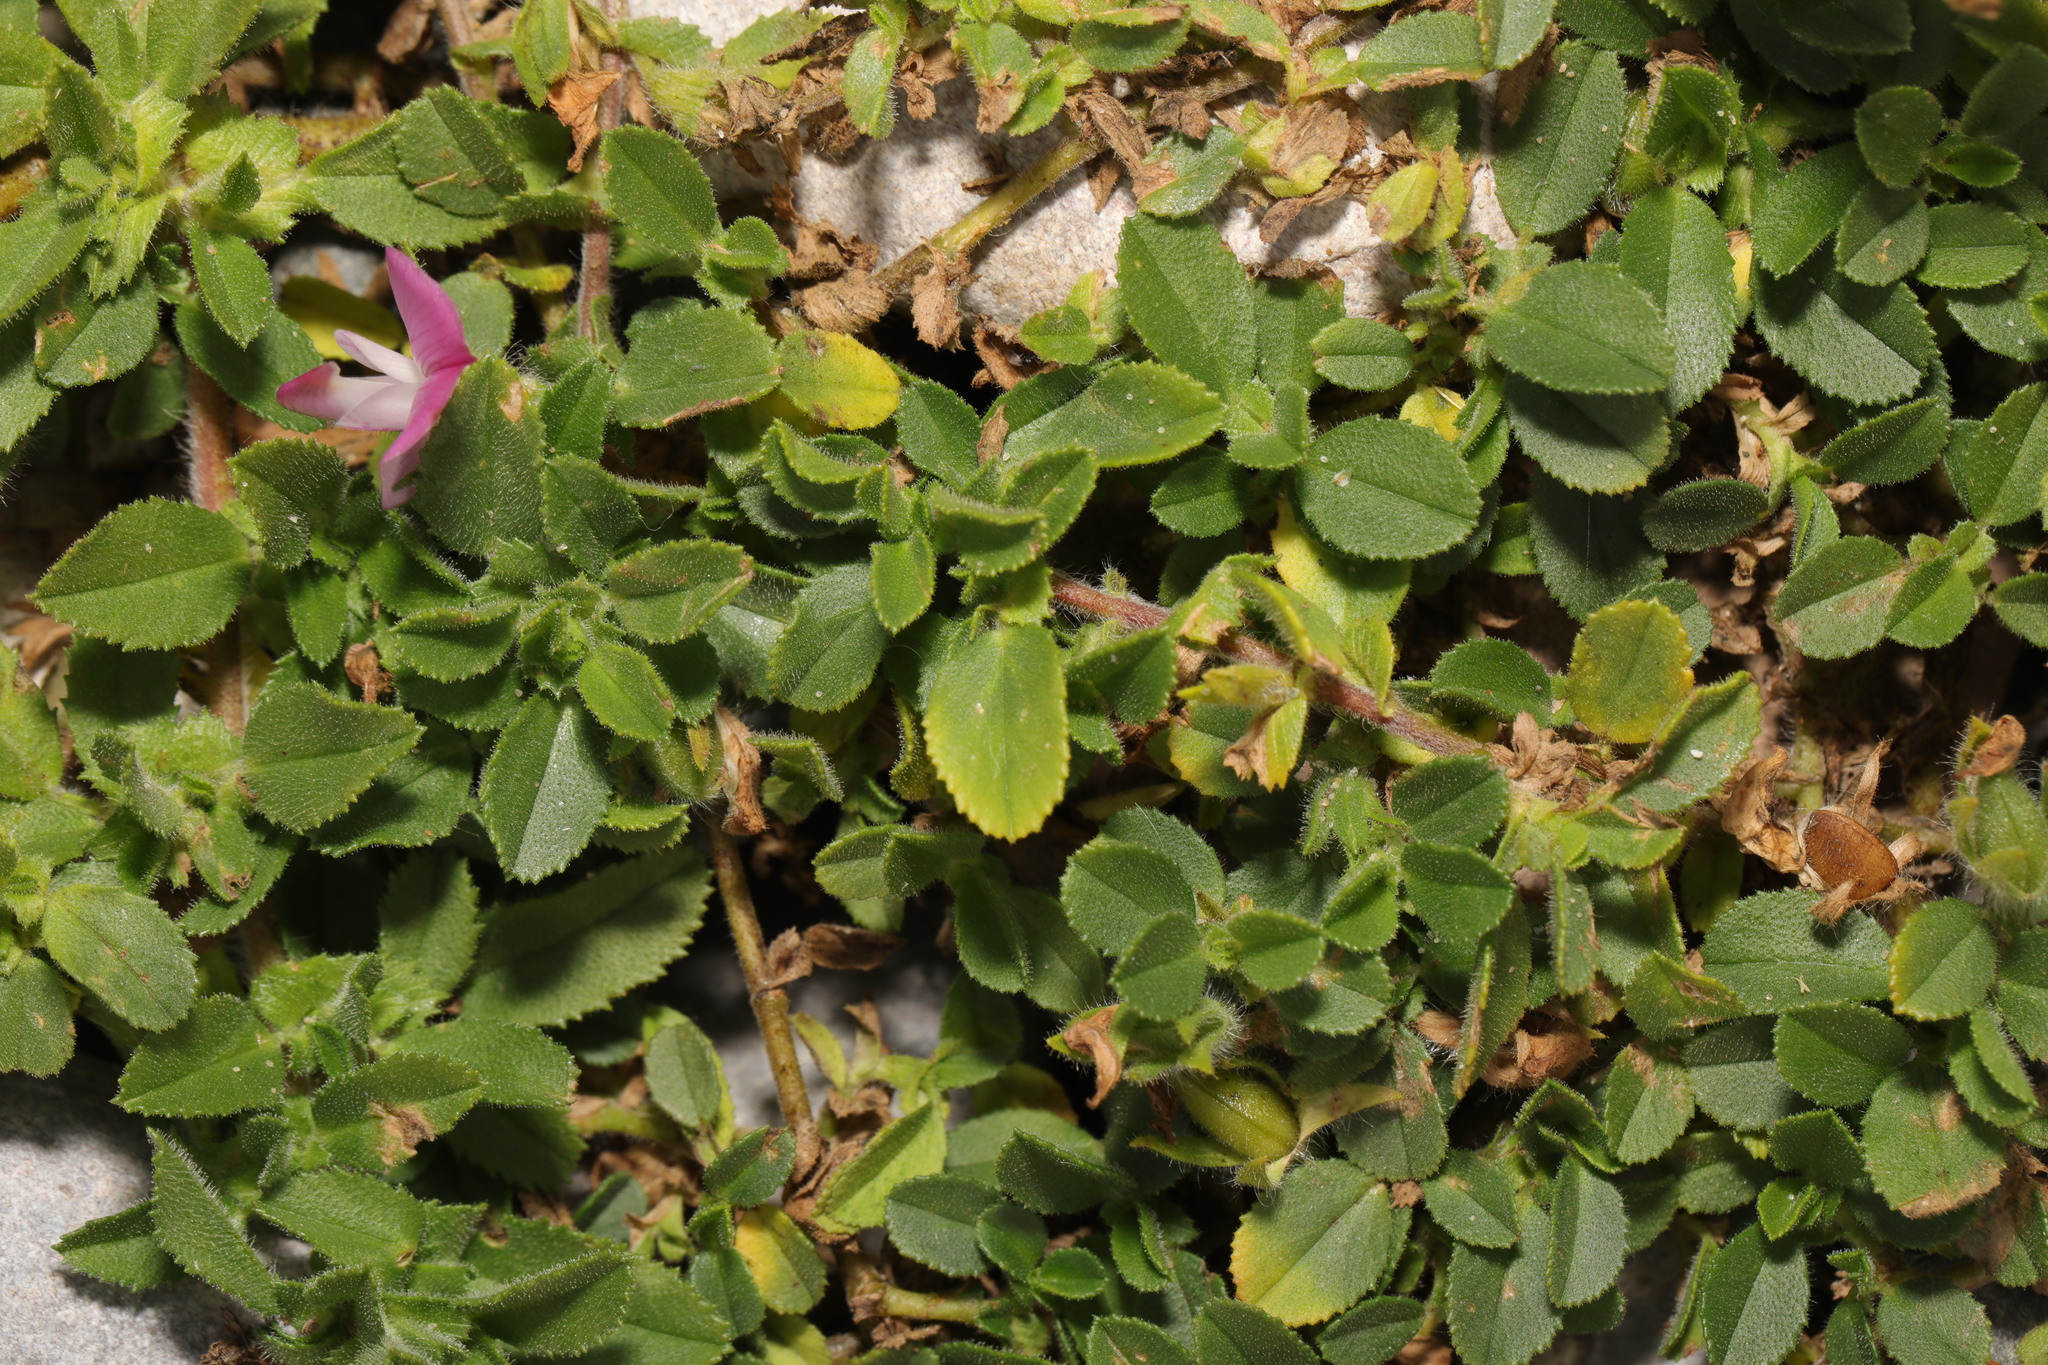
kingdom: Plantae
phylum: Tracheophyta
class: Magnoliopsida
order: Fabales
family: Fabaceae
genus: Ononis
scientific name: Ononis spinosa
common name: Spiny restharrow
